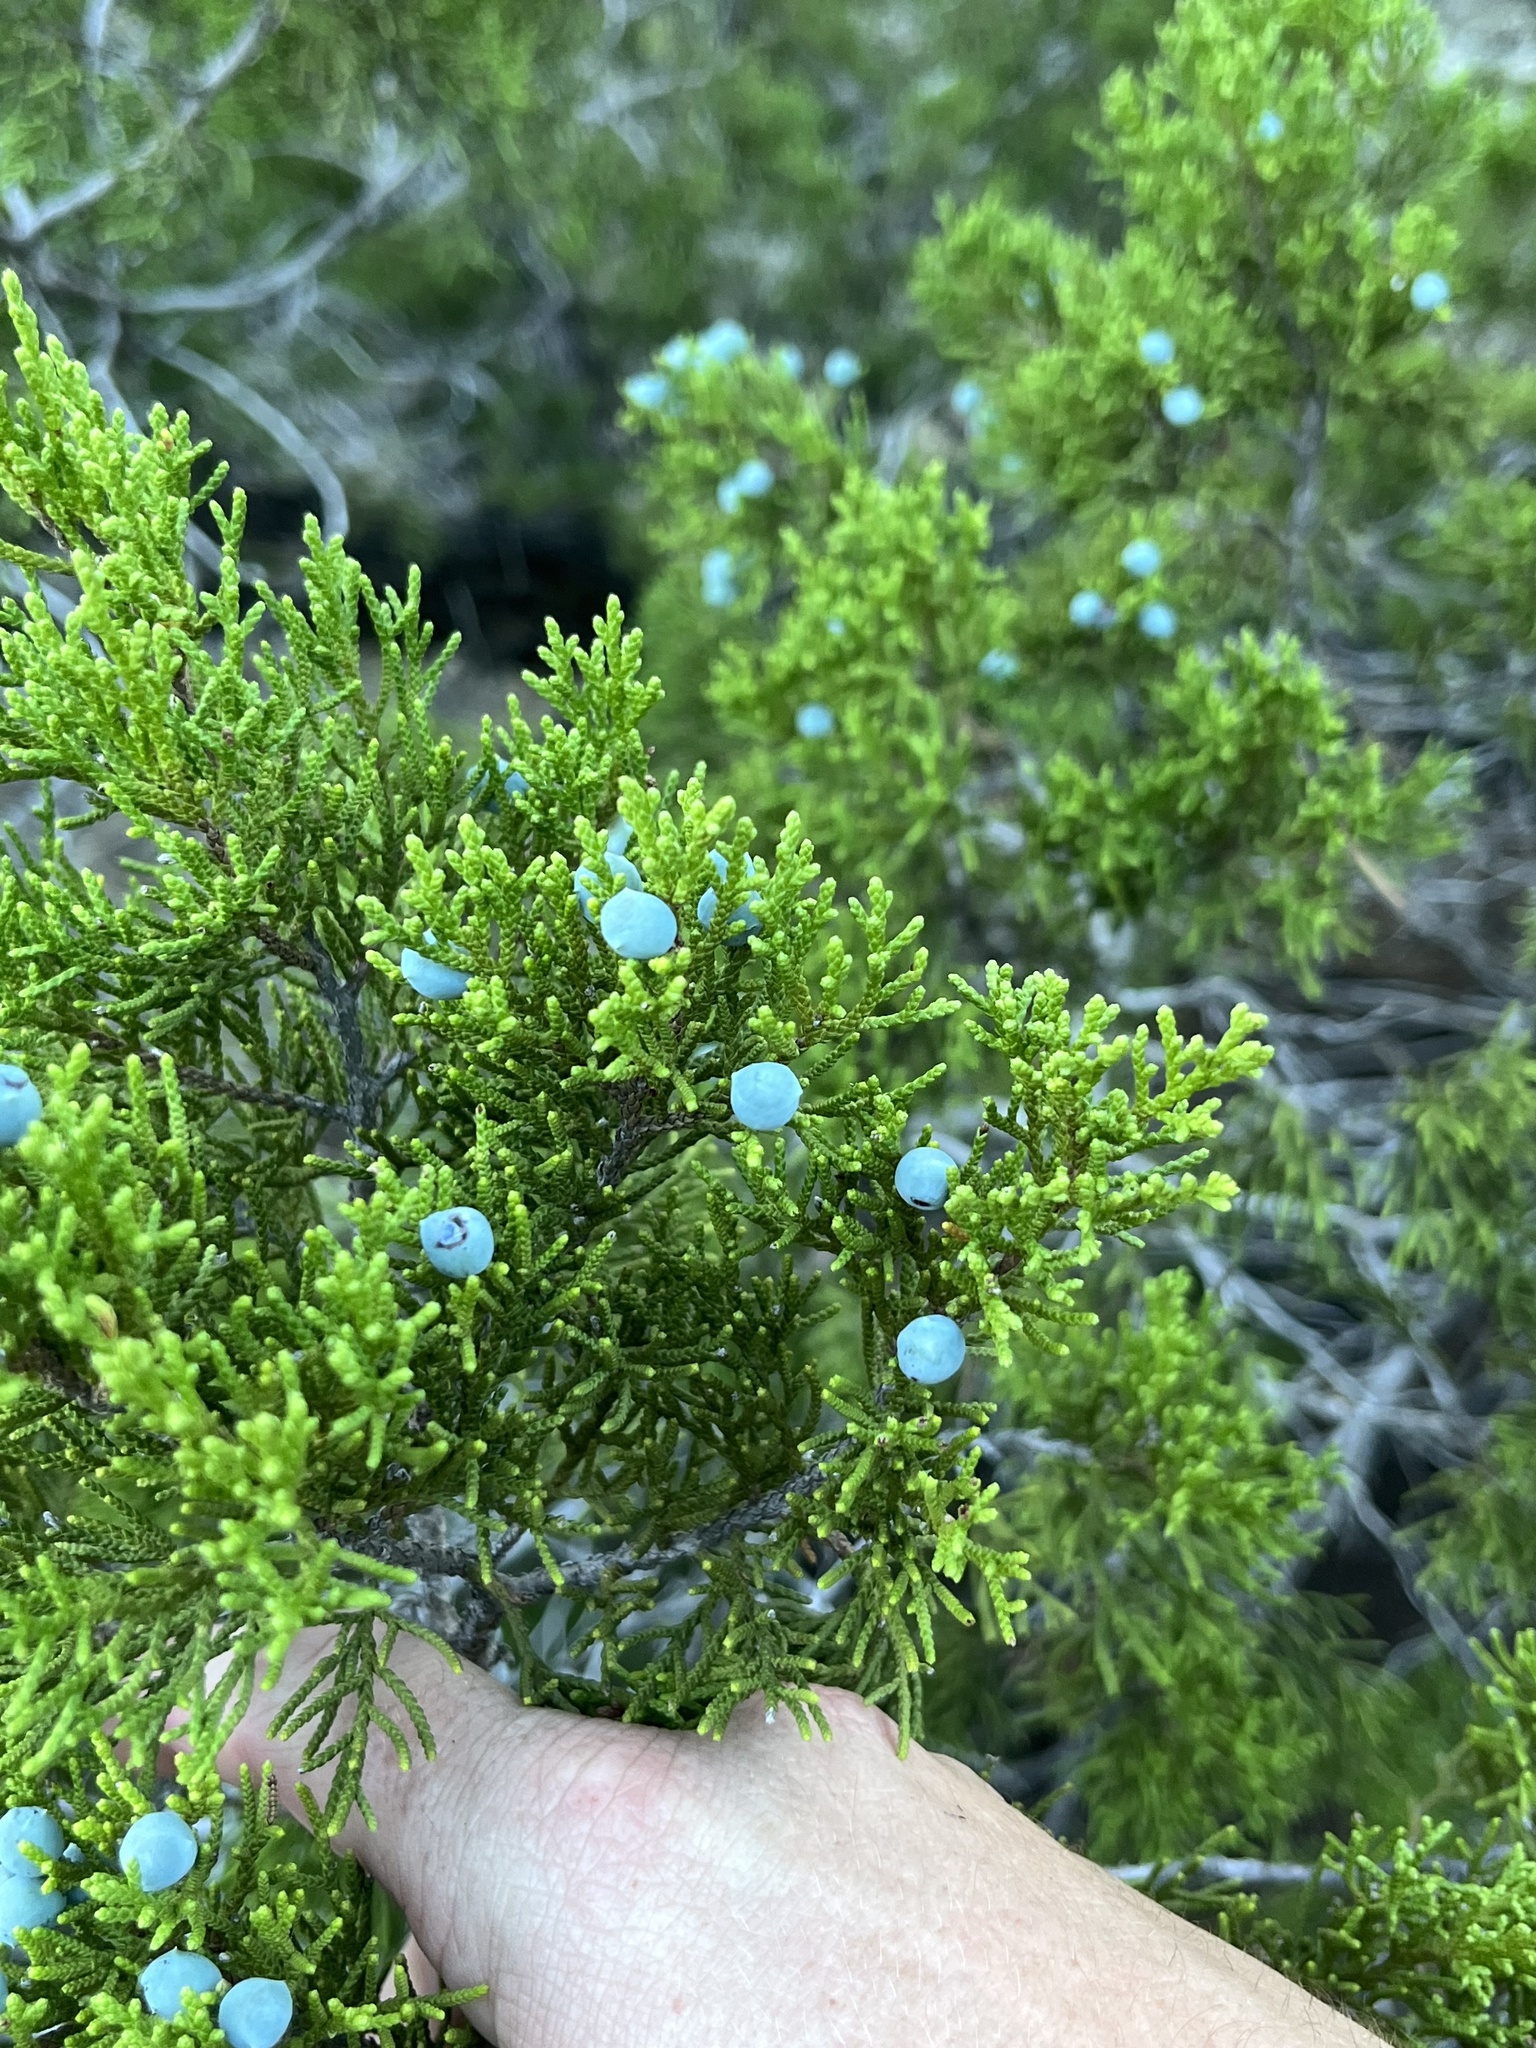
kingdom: Plantae
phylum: Tracheophyta
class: Pinopsida
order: Pinales
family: Cupressaceae
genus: Juniperus
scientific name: Juniperus ashei
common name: Mexican juniper
